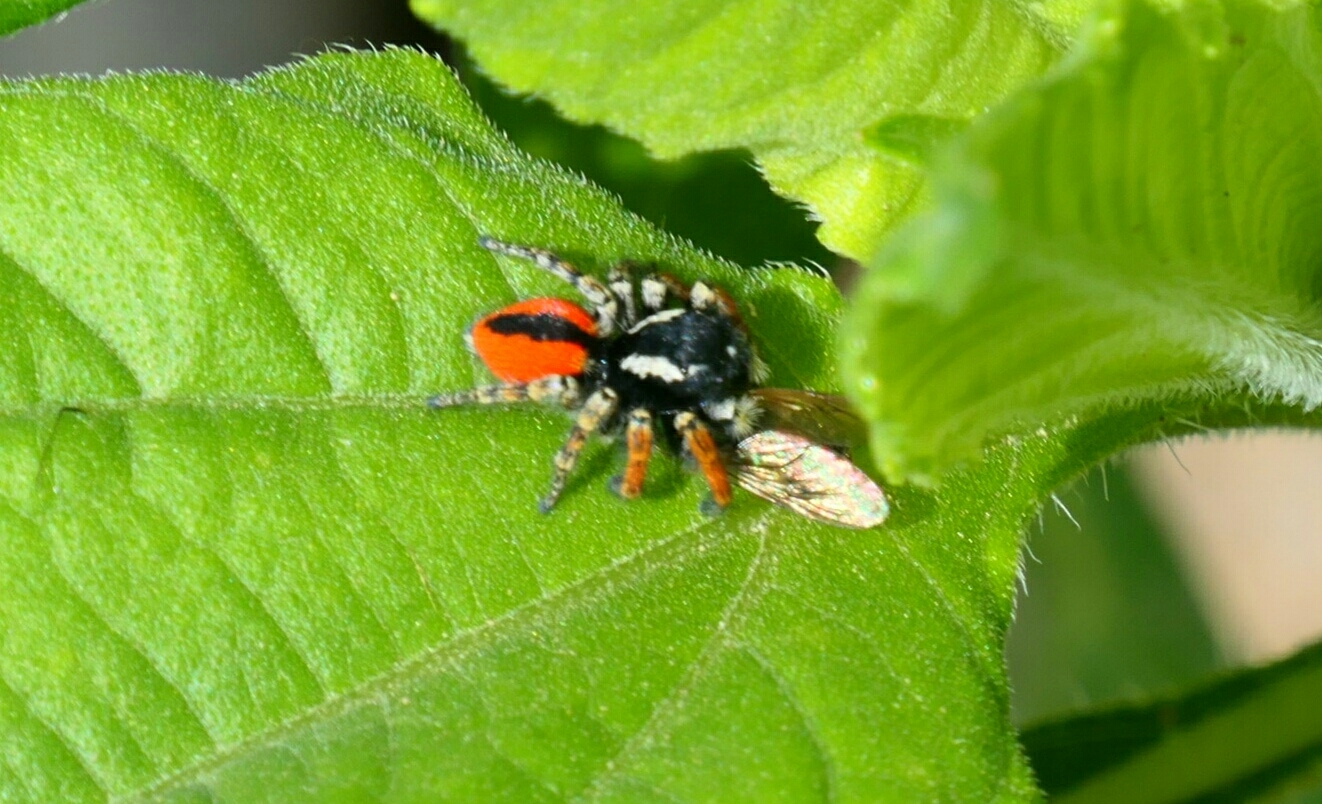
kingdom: Animalia
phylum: Arthropoda
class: Arachnida
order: Araneae
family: Salticidae
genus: Philaeus
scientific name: Philaeus chrysops
